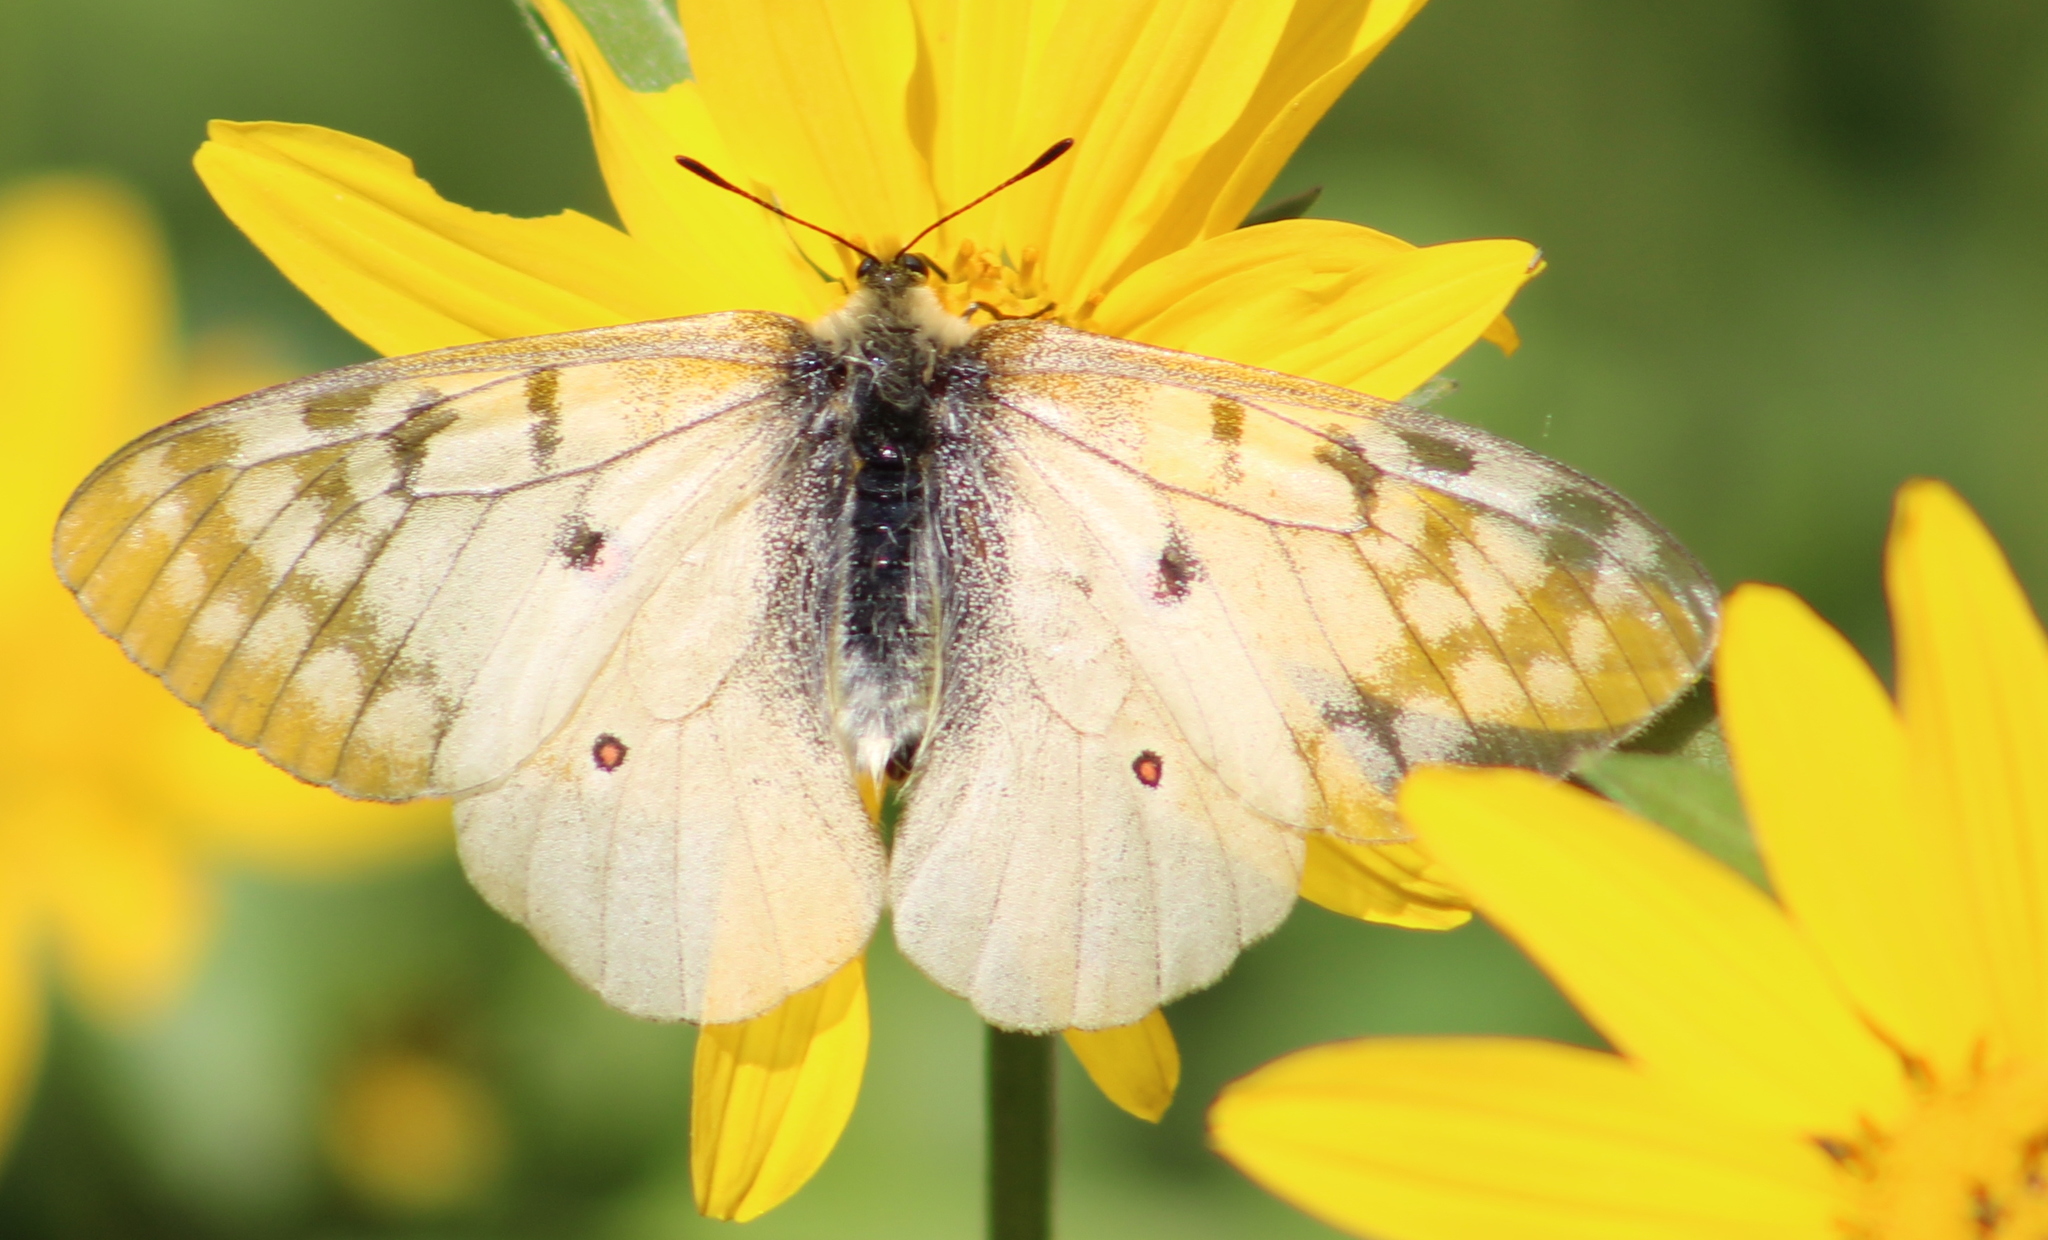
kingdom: Animalia
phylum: Arthropoda
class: Insecta
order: Lepidoptera
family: Papilionidae
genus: Parnassius
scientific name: Parnassius clodius
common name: American apollo
